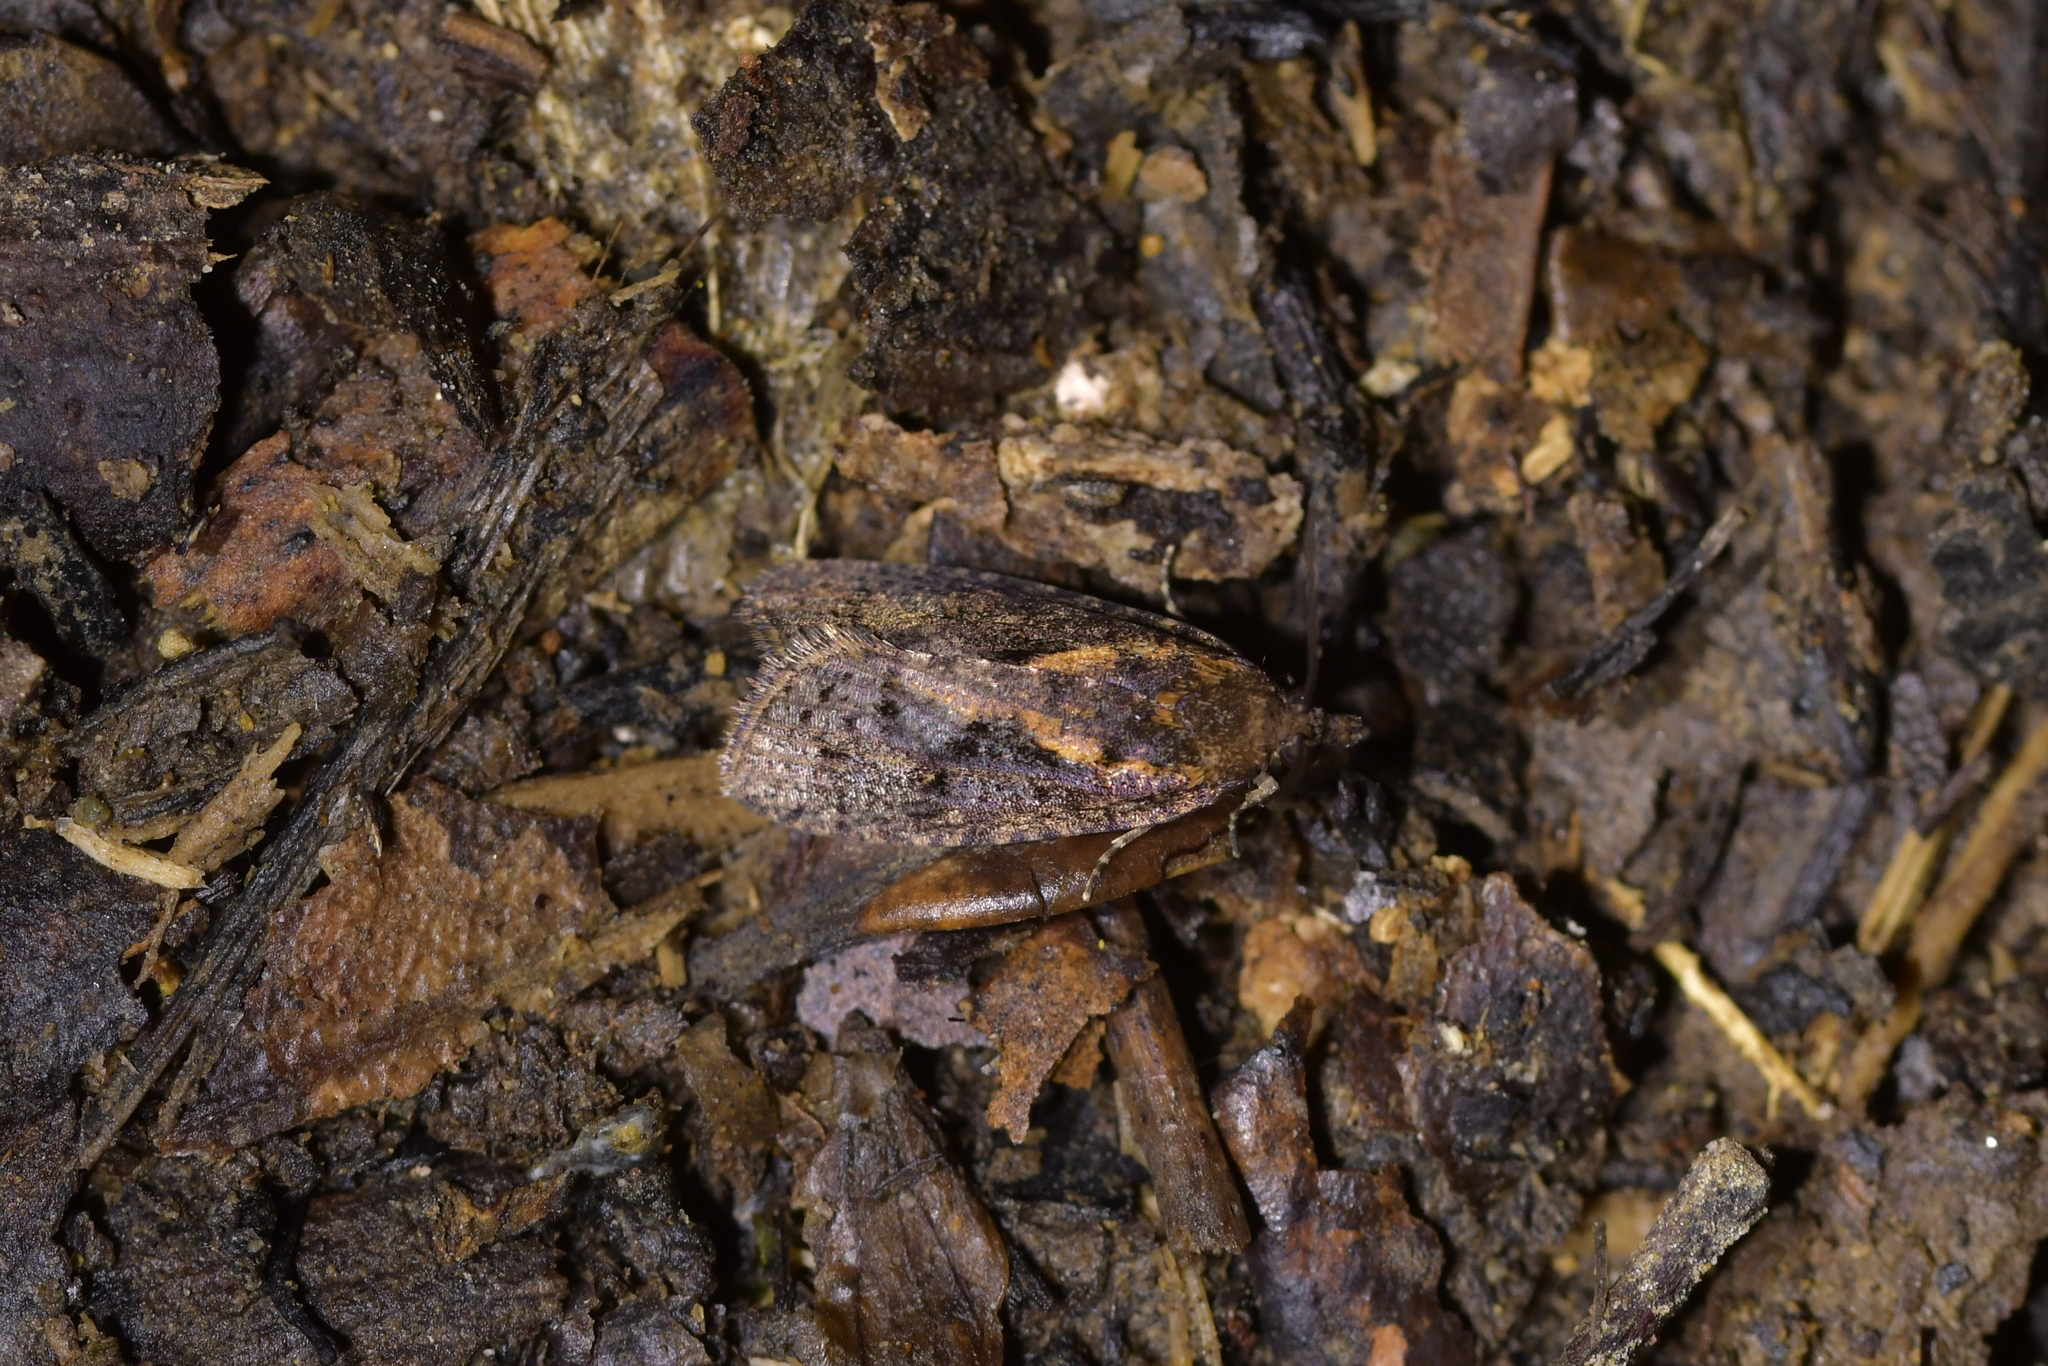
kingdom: Animalia
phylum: Arthropoda
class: Insecta
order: Lepidoptera
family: Tortricidae
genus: Cryptaspasma
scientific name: Cryptaspasma querula
